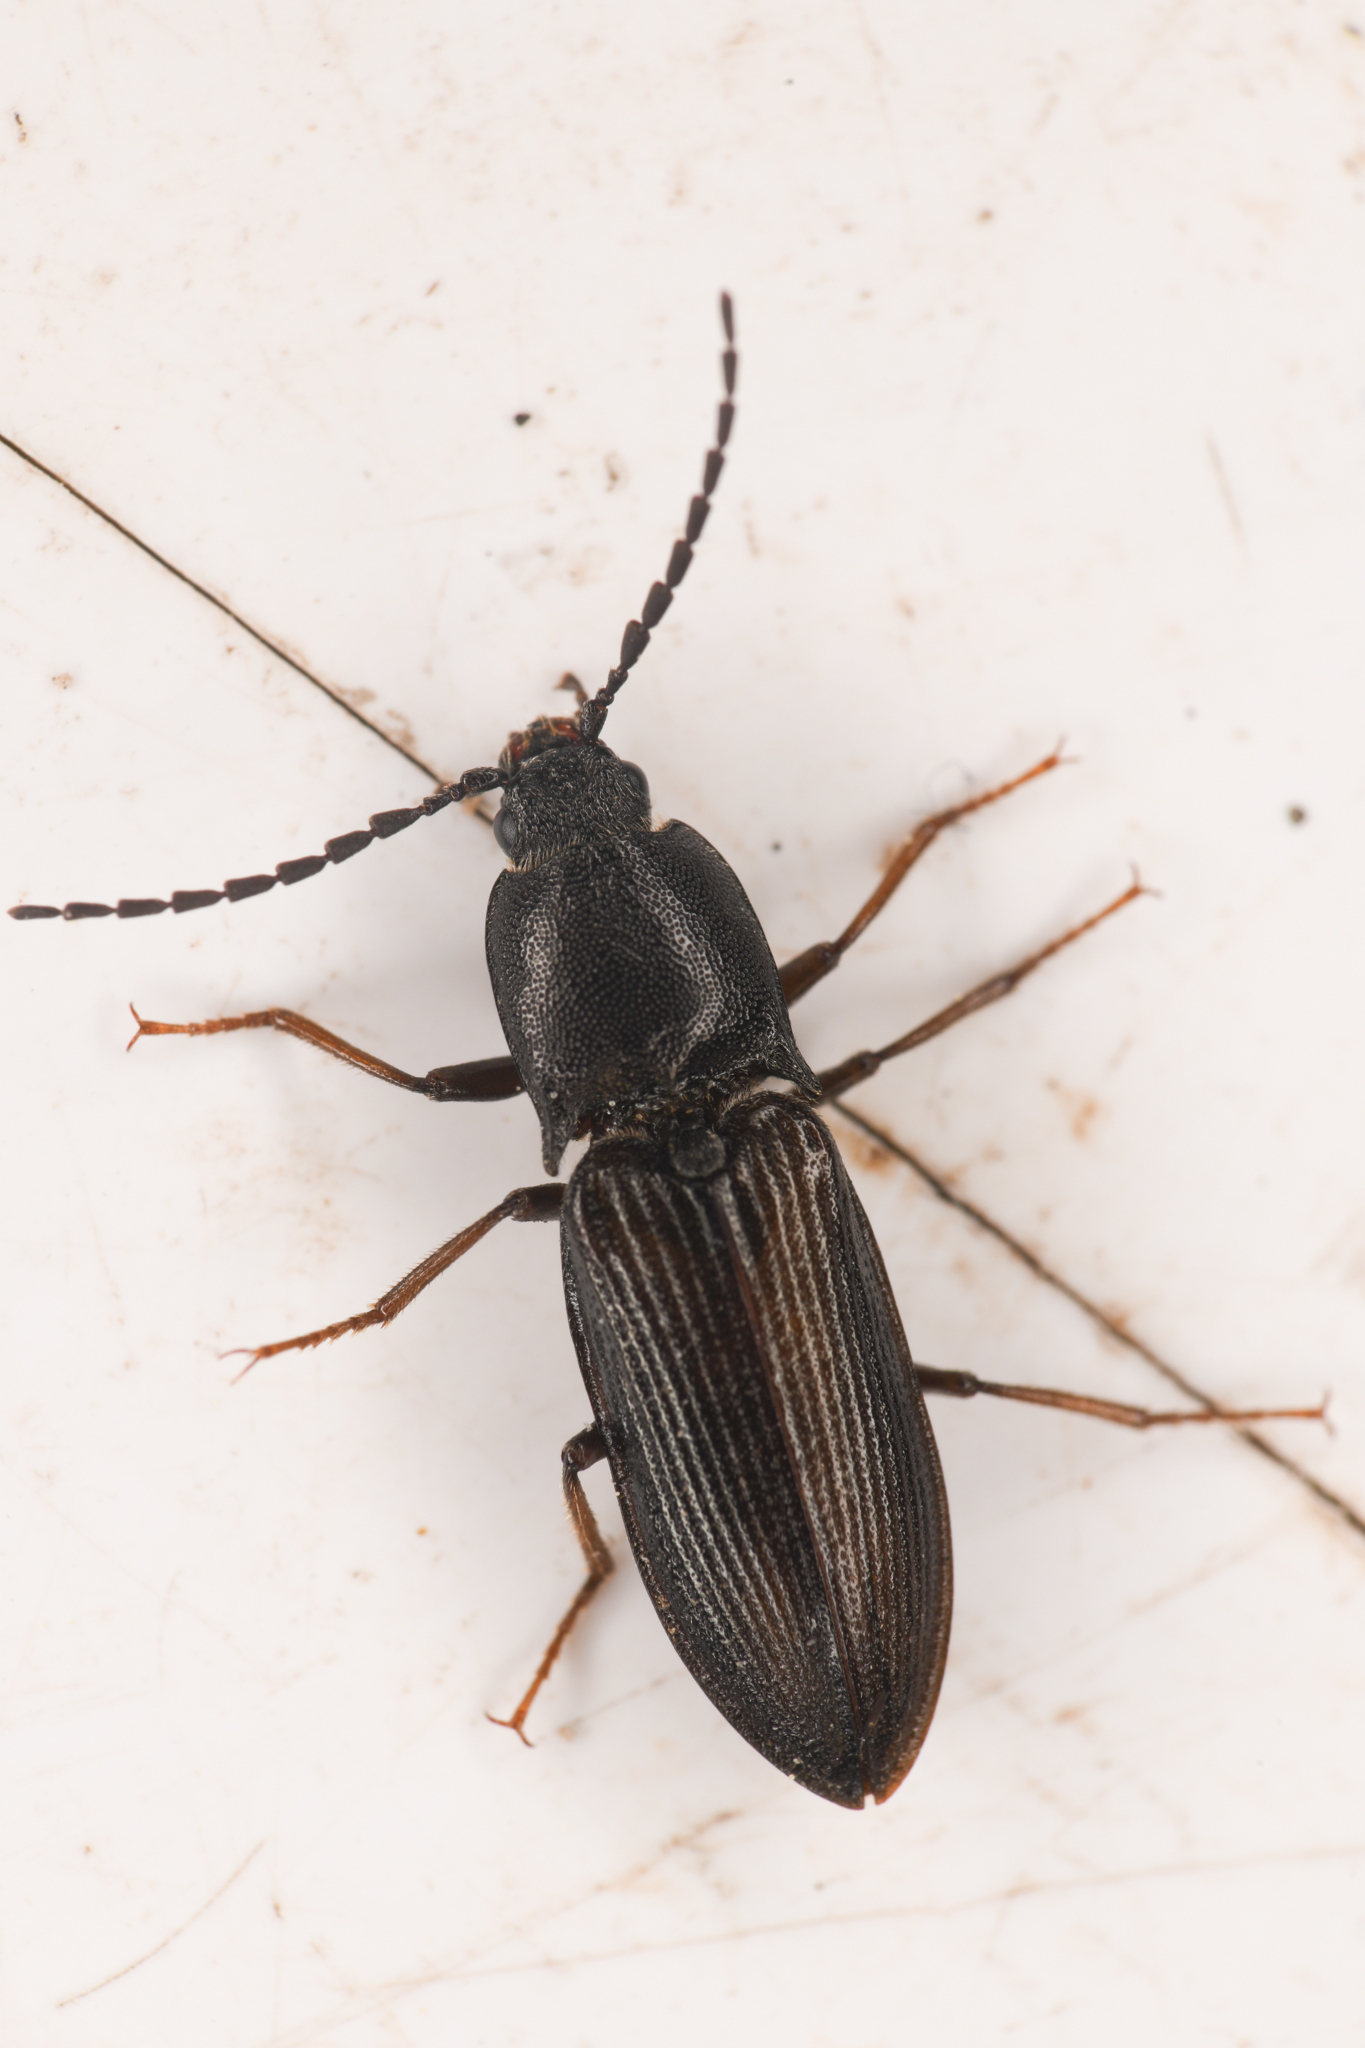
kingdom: Animalia
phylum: Arthropoda
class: Insecta
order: Coleoptera
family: Elateridae
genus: Tesolasomus
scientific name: Tesolasomus morulus
